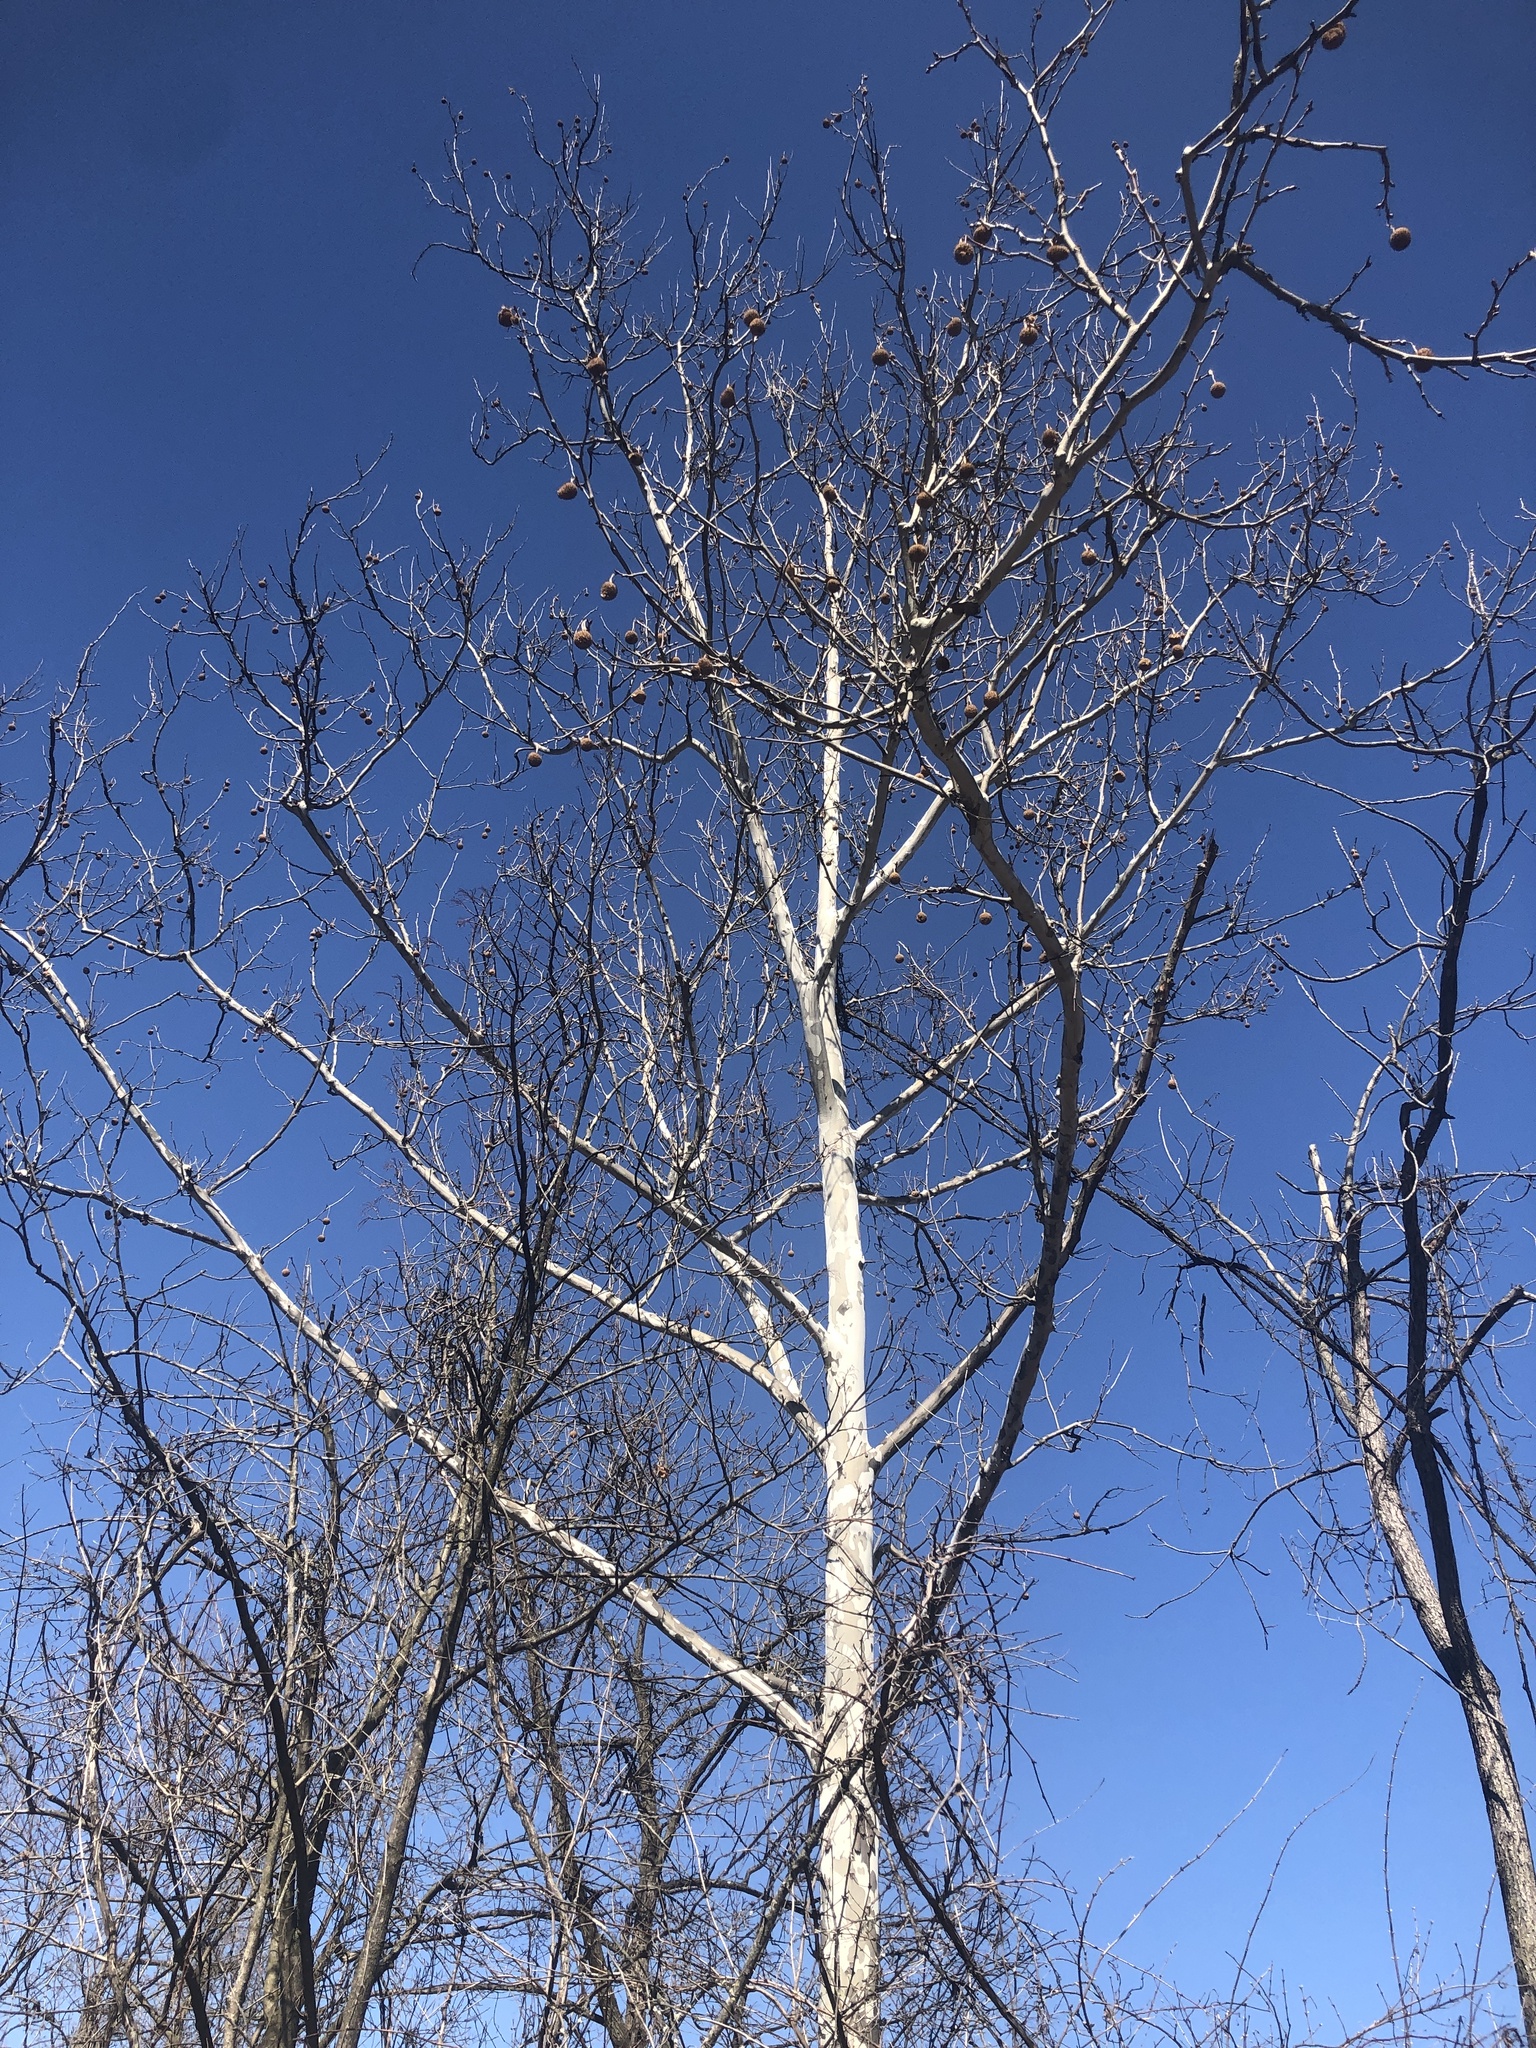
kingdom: Plantae
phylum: Tracheophyta
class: Magnoliopsida
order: Proteales
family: Platanaceae
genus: Platanus
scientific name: Platanus occidentalis
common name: American sycamore
